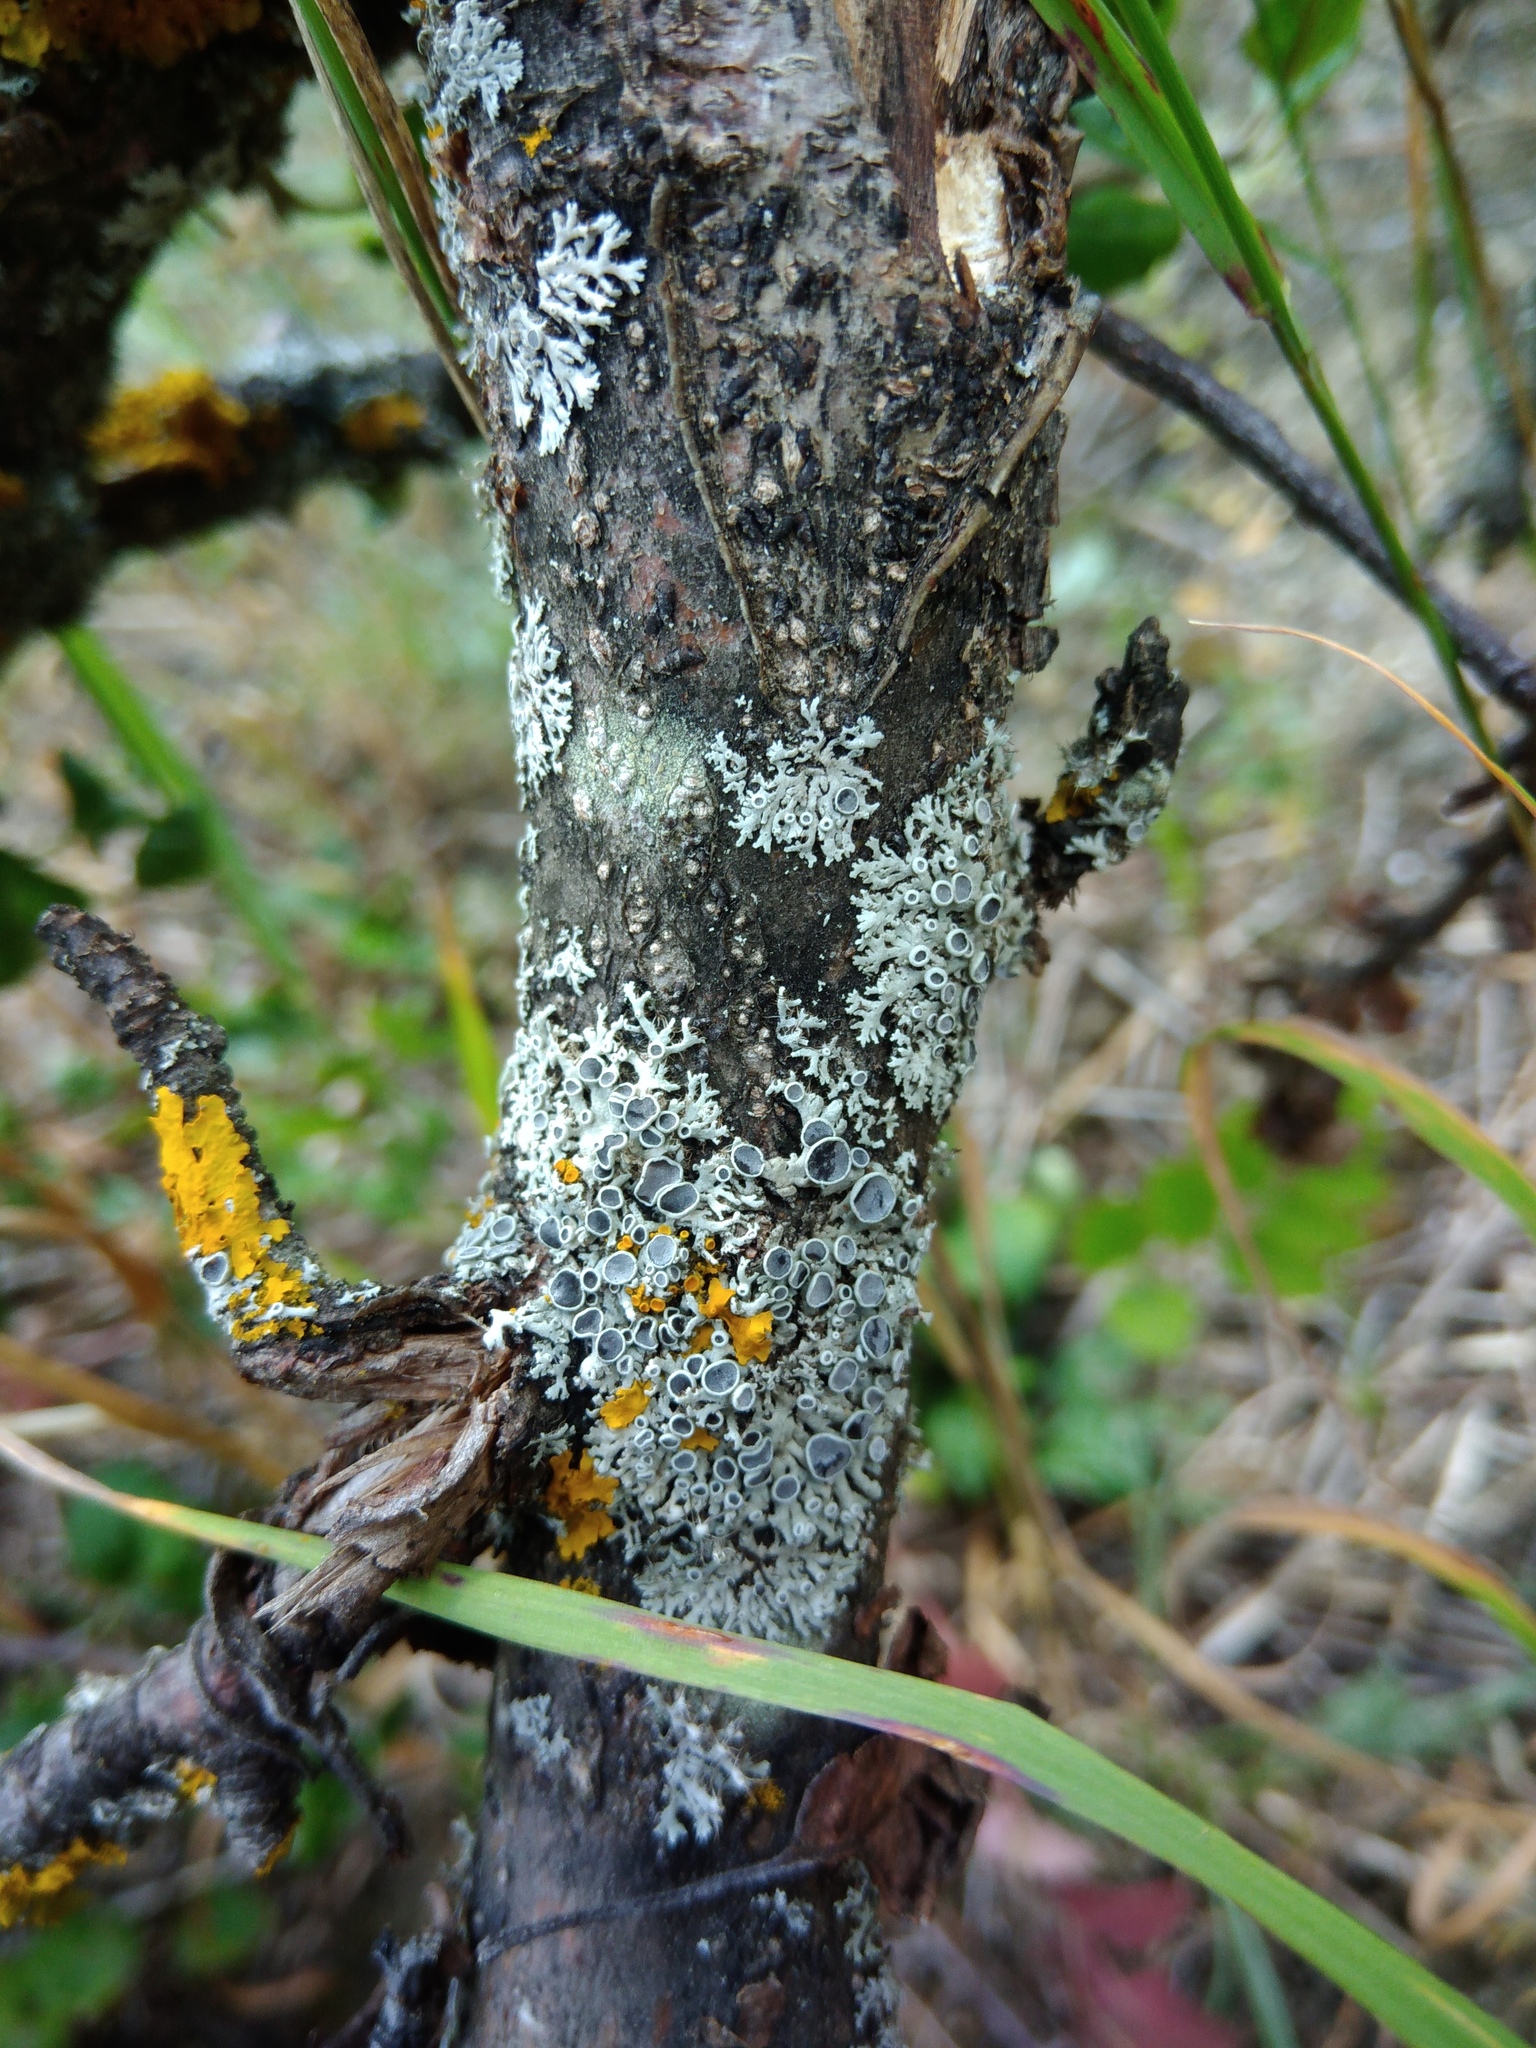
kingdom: Fungi
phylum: Ascomycota
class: Lecanoromycetes
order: Caliciales
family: Physciaceae
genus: Physcia
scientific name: Physcia stellaris
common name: Star rosette lichen
